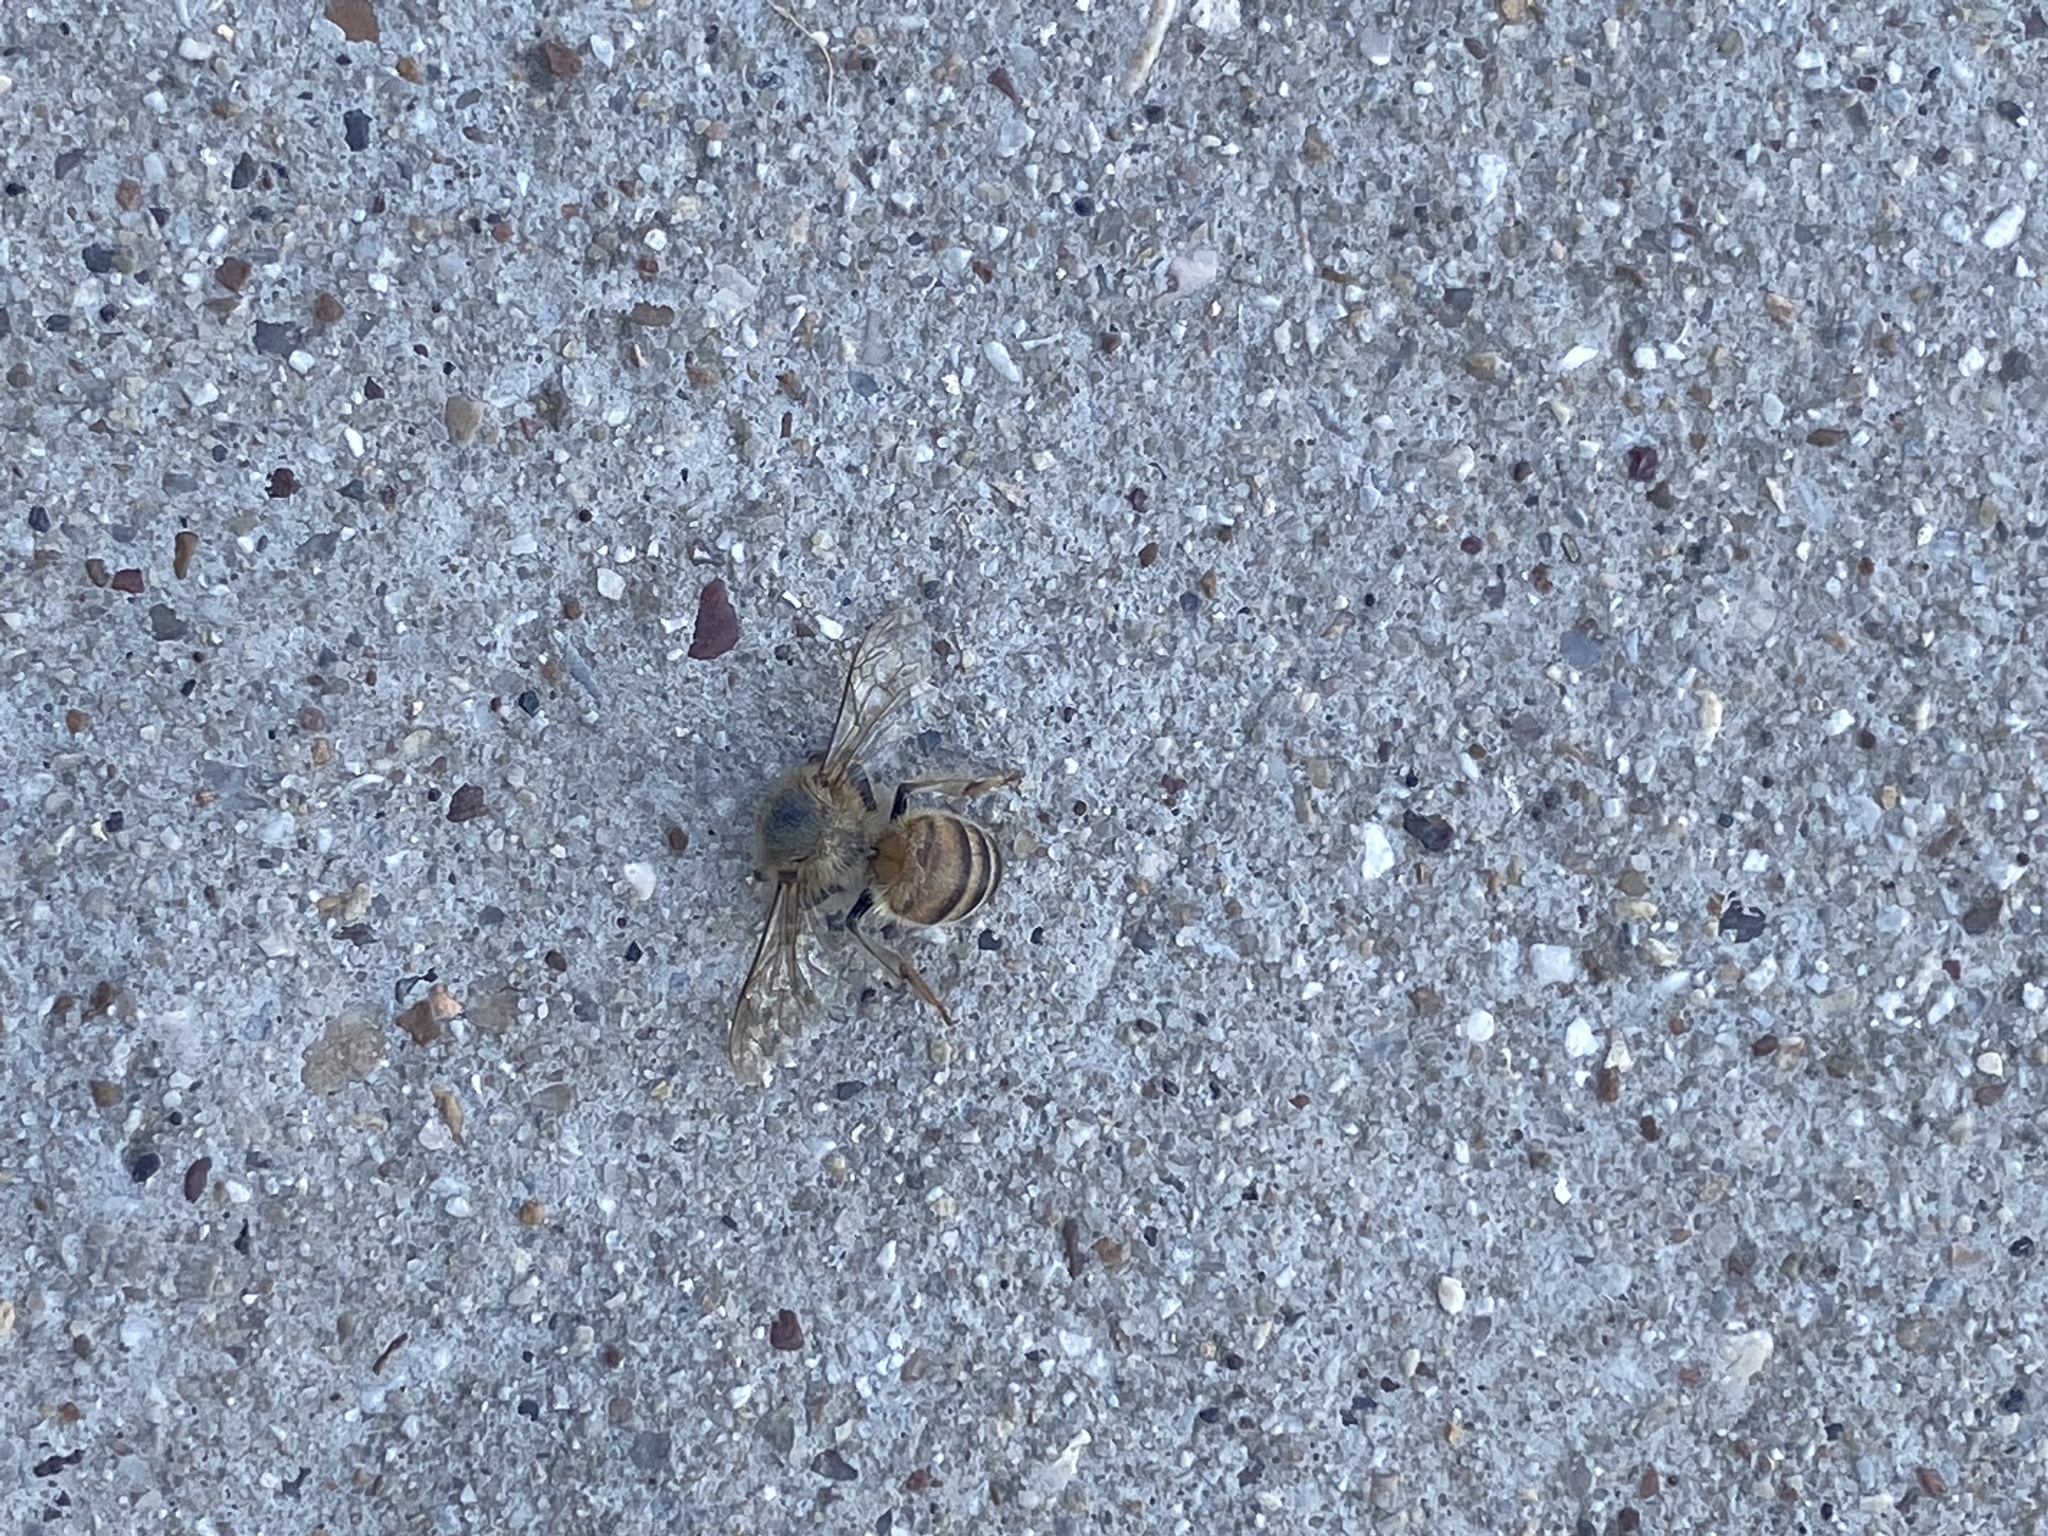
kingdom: Animalia
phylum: Arthropoda
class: Insecta
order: Hymenoptera
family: Apidae
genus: Apis
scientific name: Apis mellifera
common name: Honey bee
